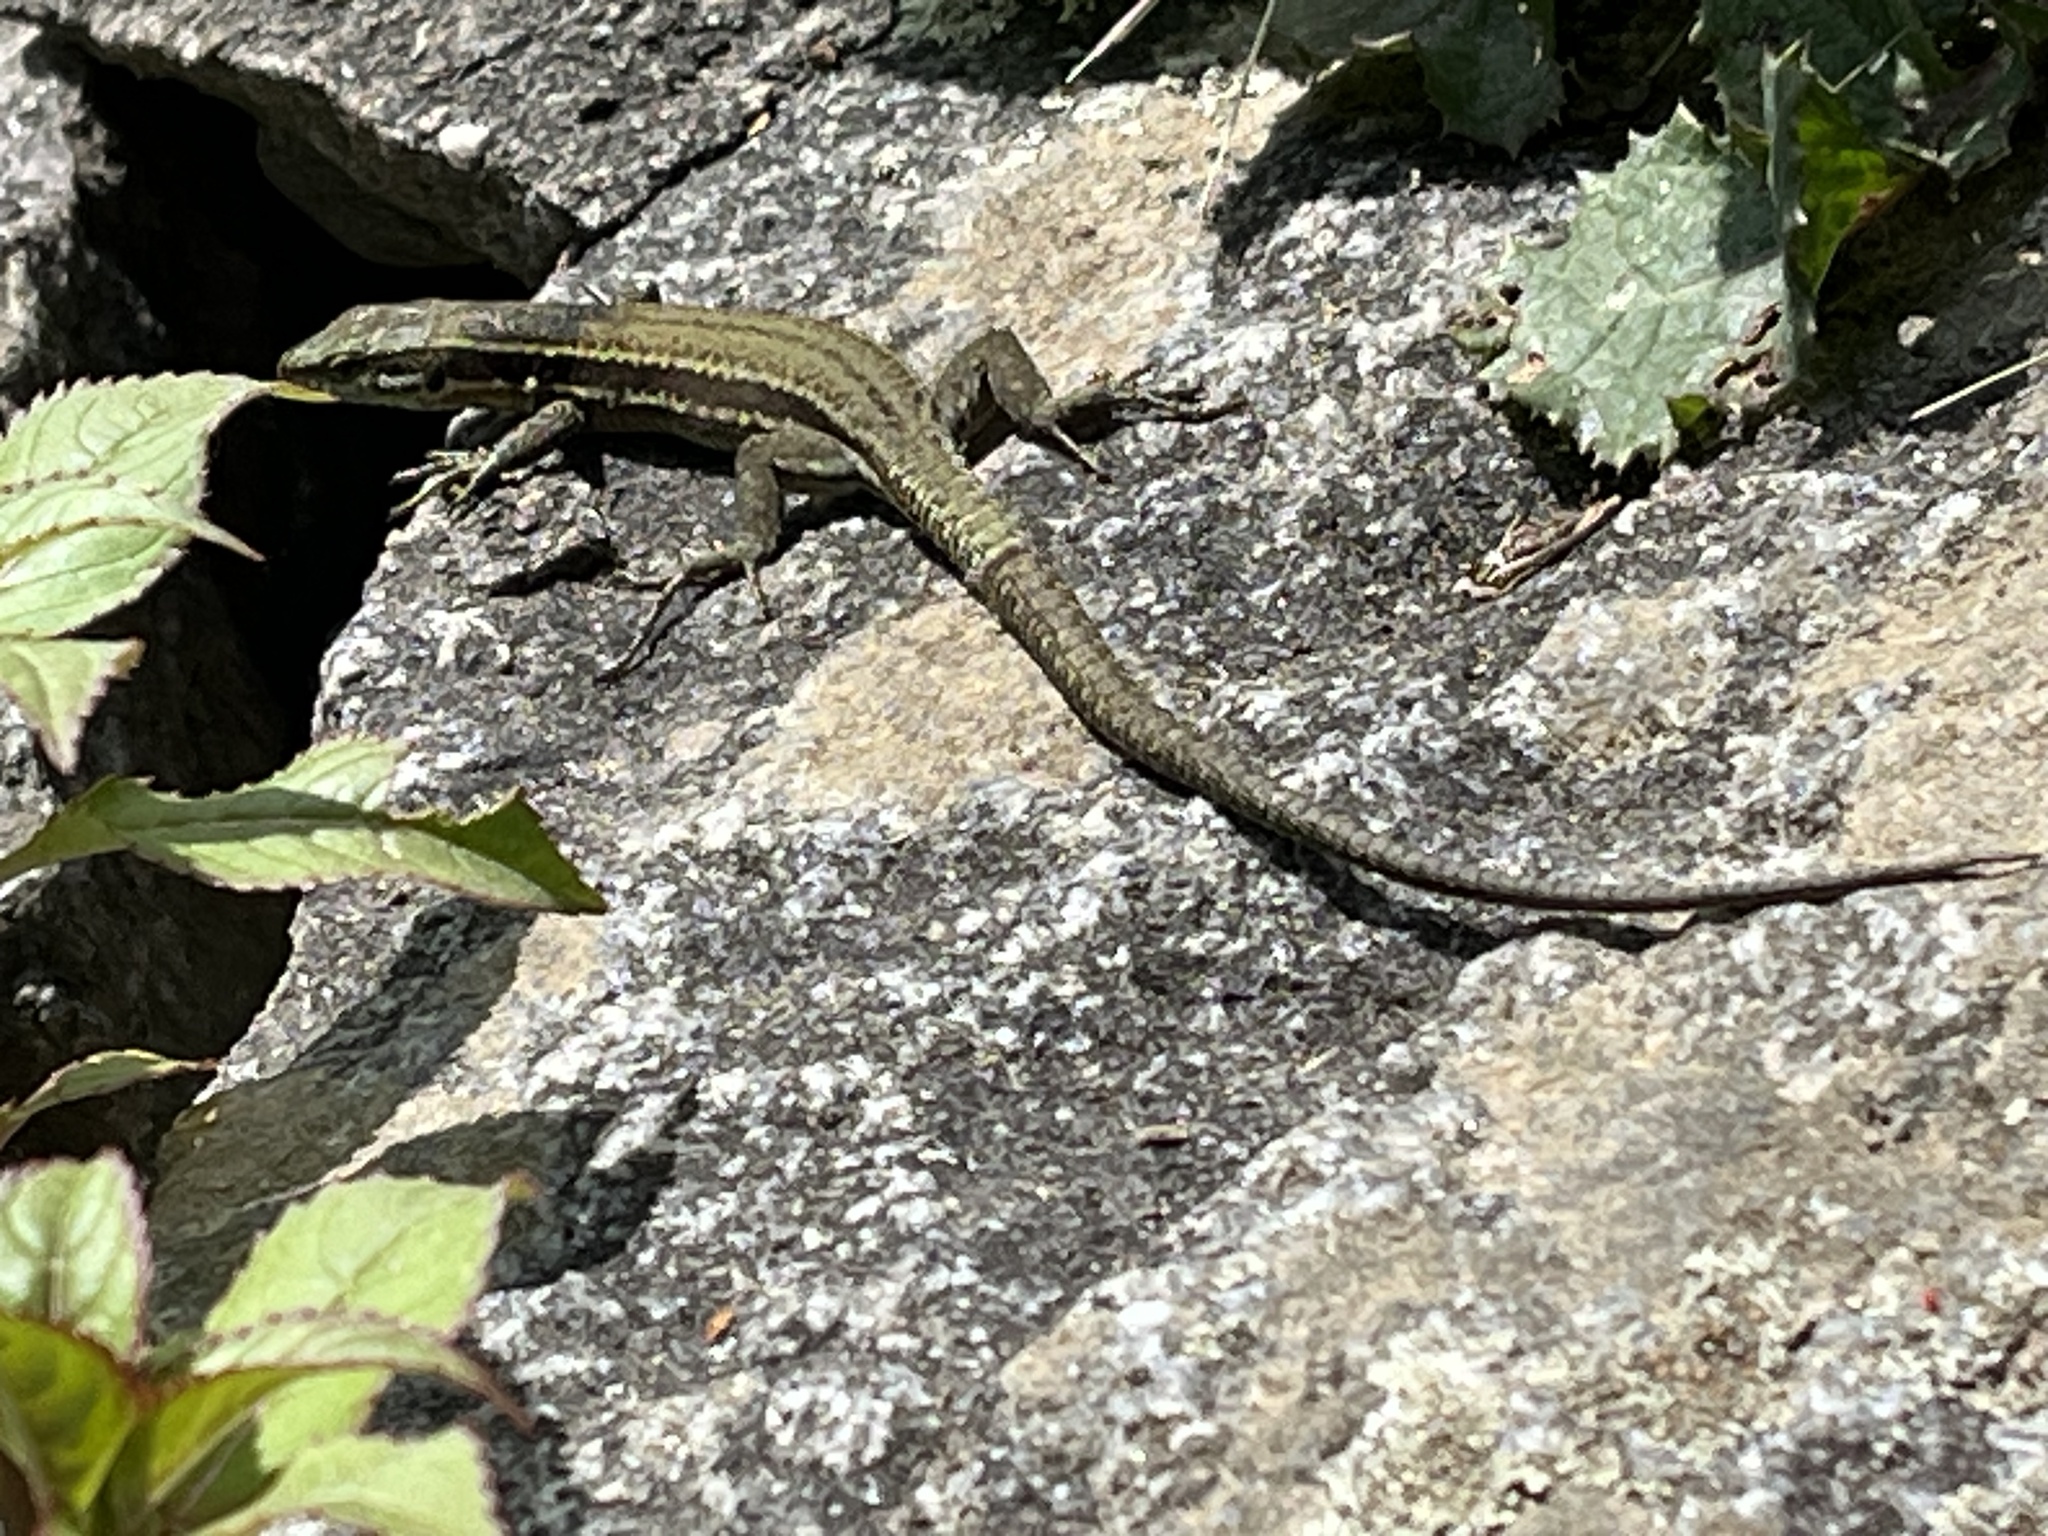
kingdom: Animalia
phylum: Chordata
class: Squamata
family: Lacertidae
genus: Podarcis
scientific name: Podarcis muralis
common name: Common wall lizard
